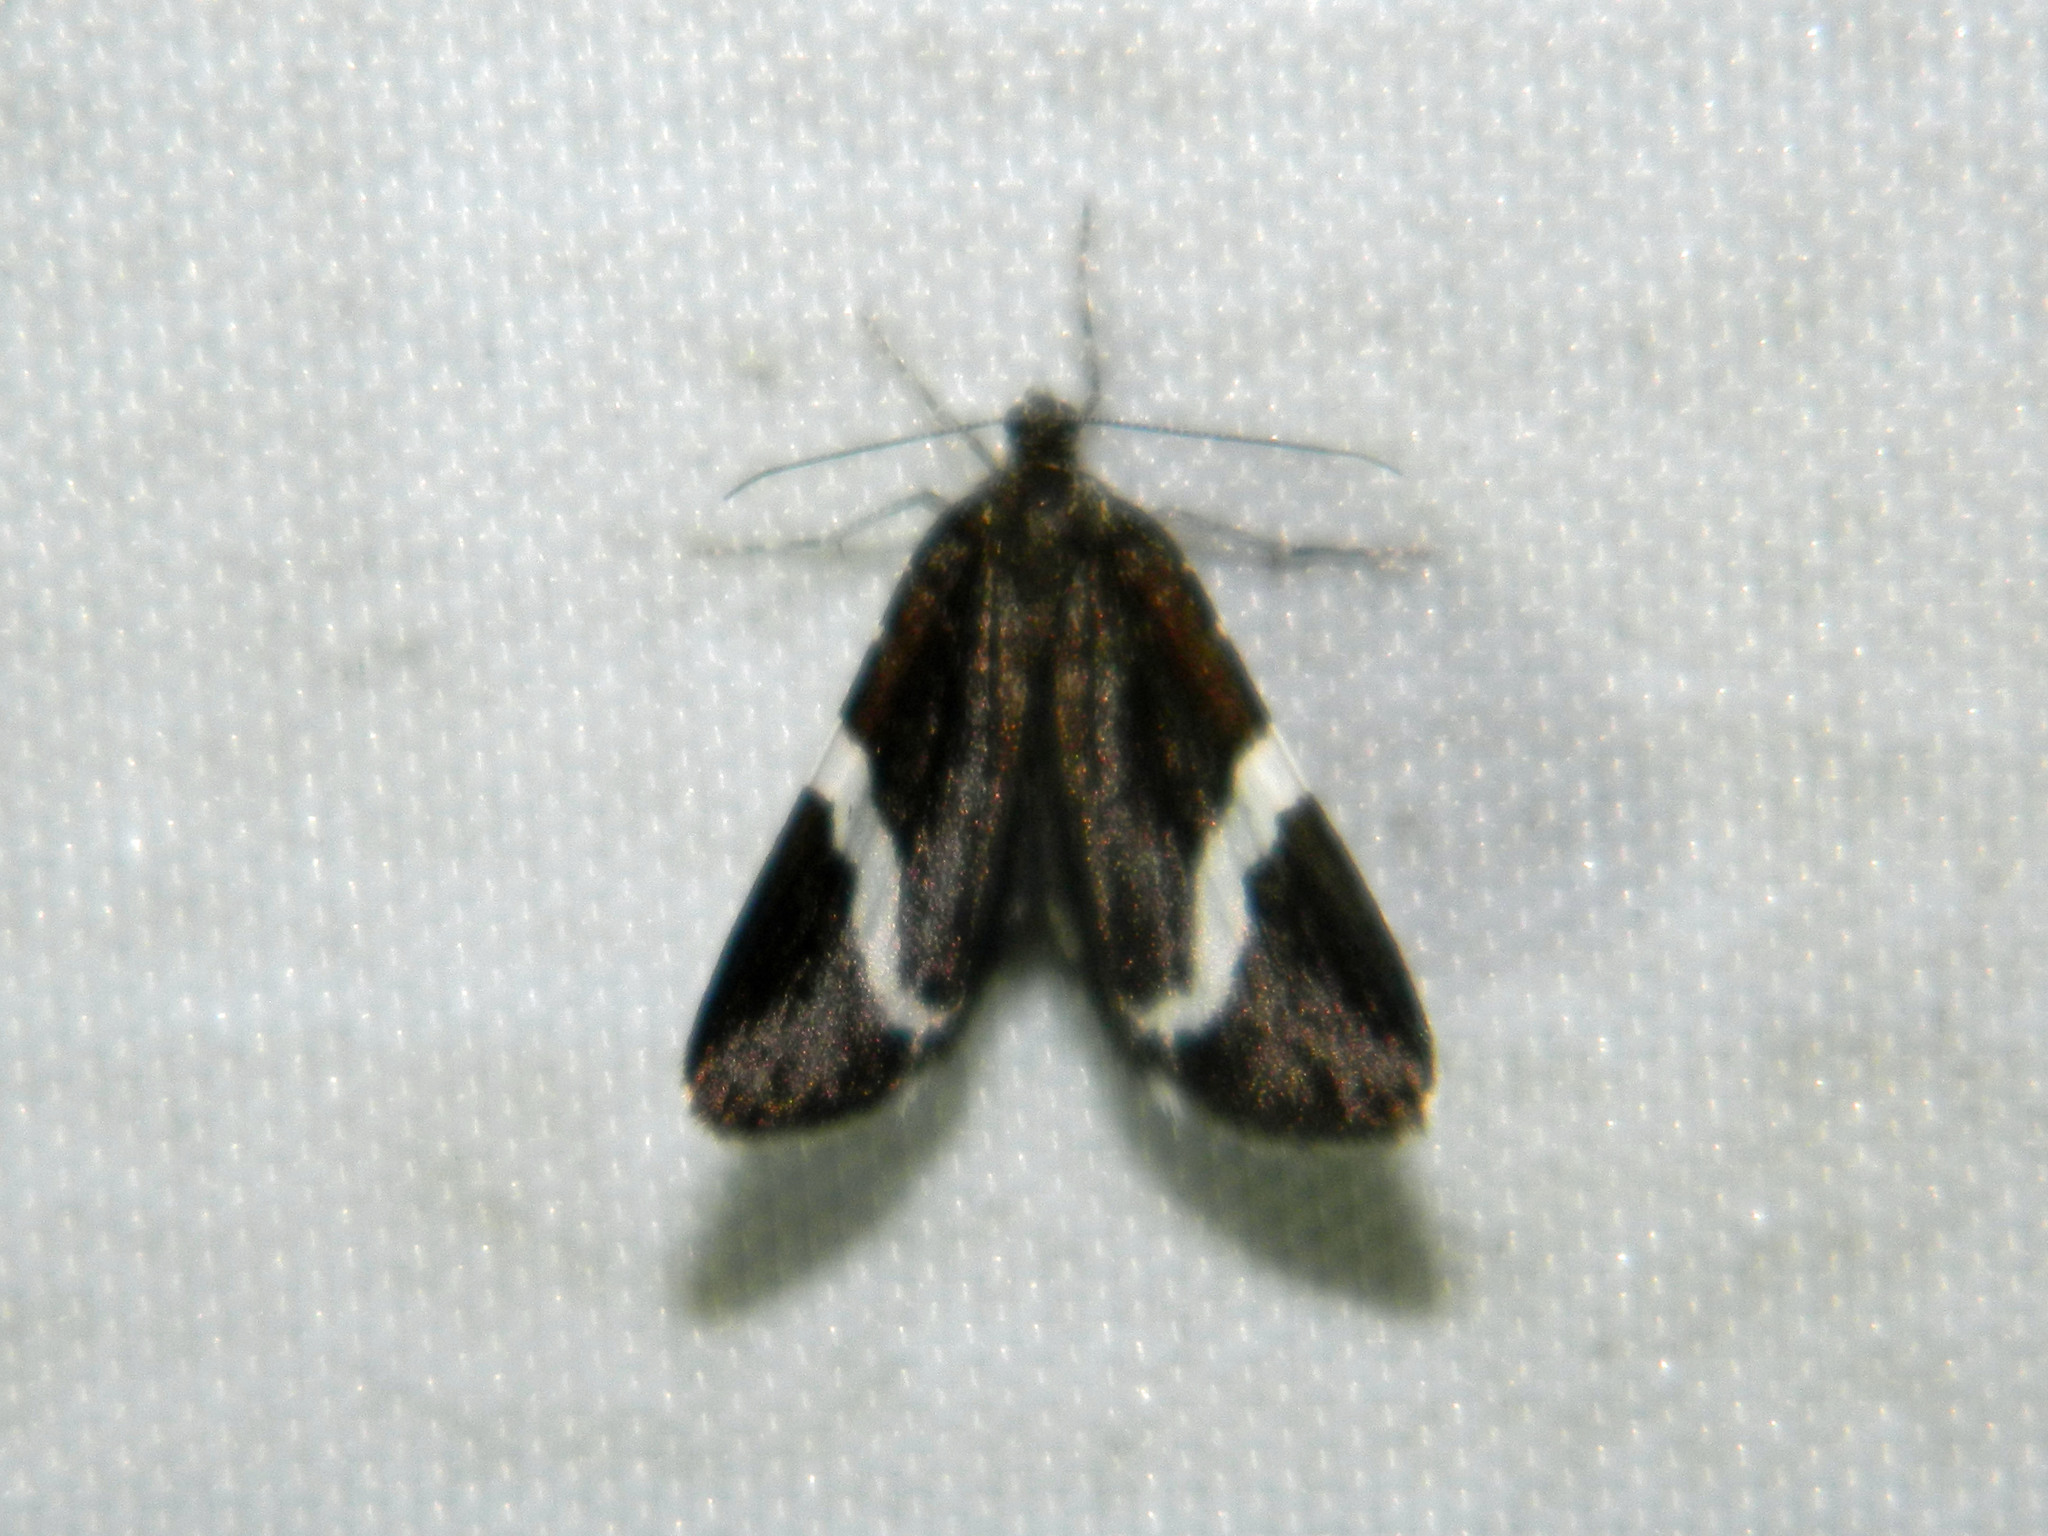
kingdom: Animalia
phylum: Arthropoda
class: Insecta
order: Lepidoptera
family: Geometridae
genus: Trichodezia
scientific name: Trichodezia albovittata
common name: White striped black
